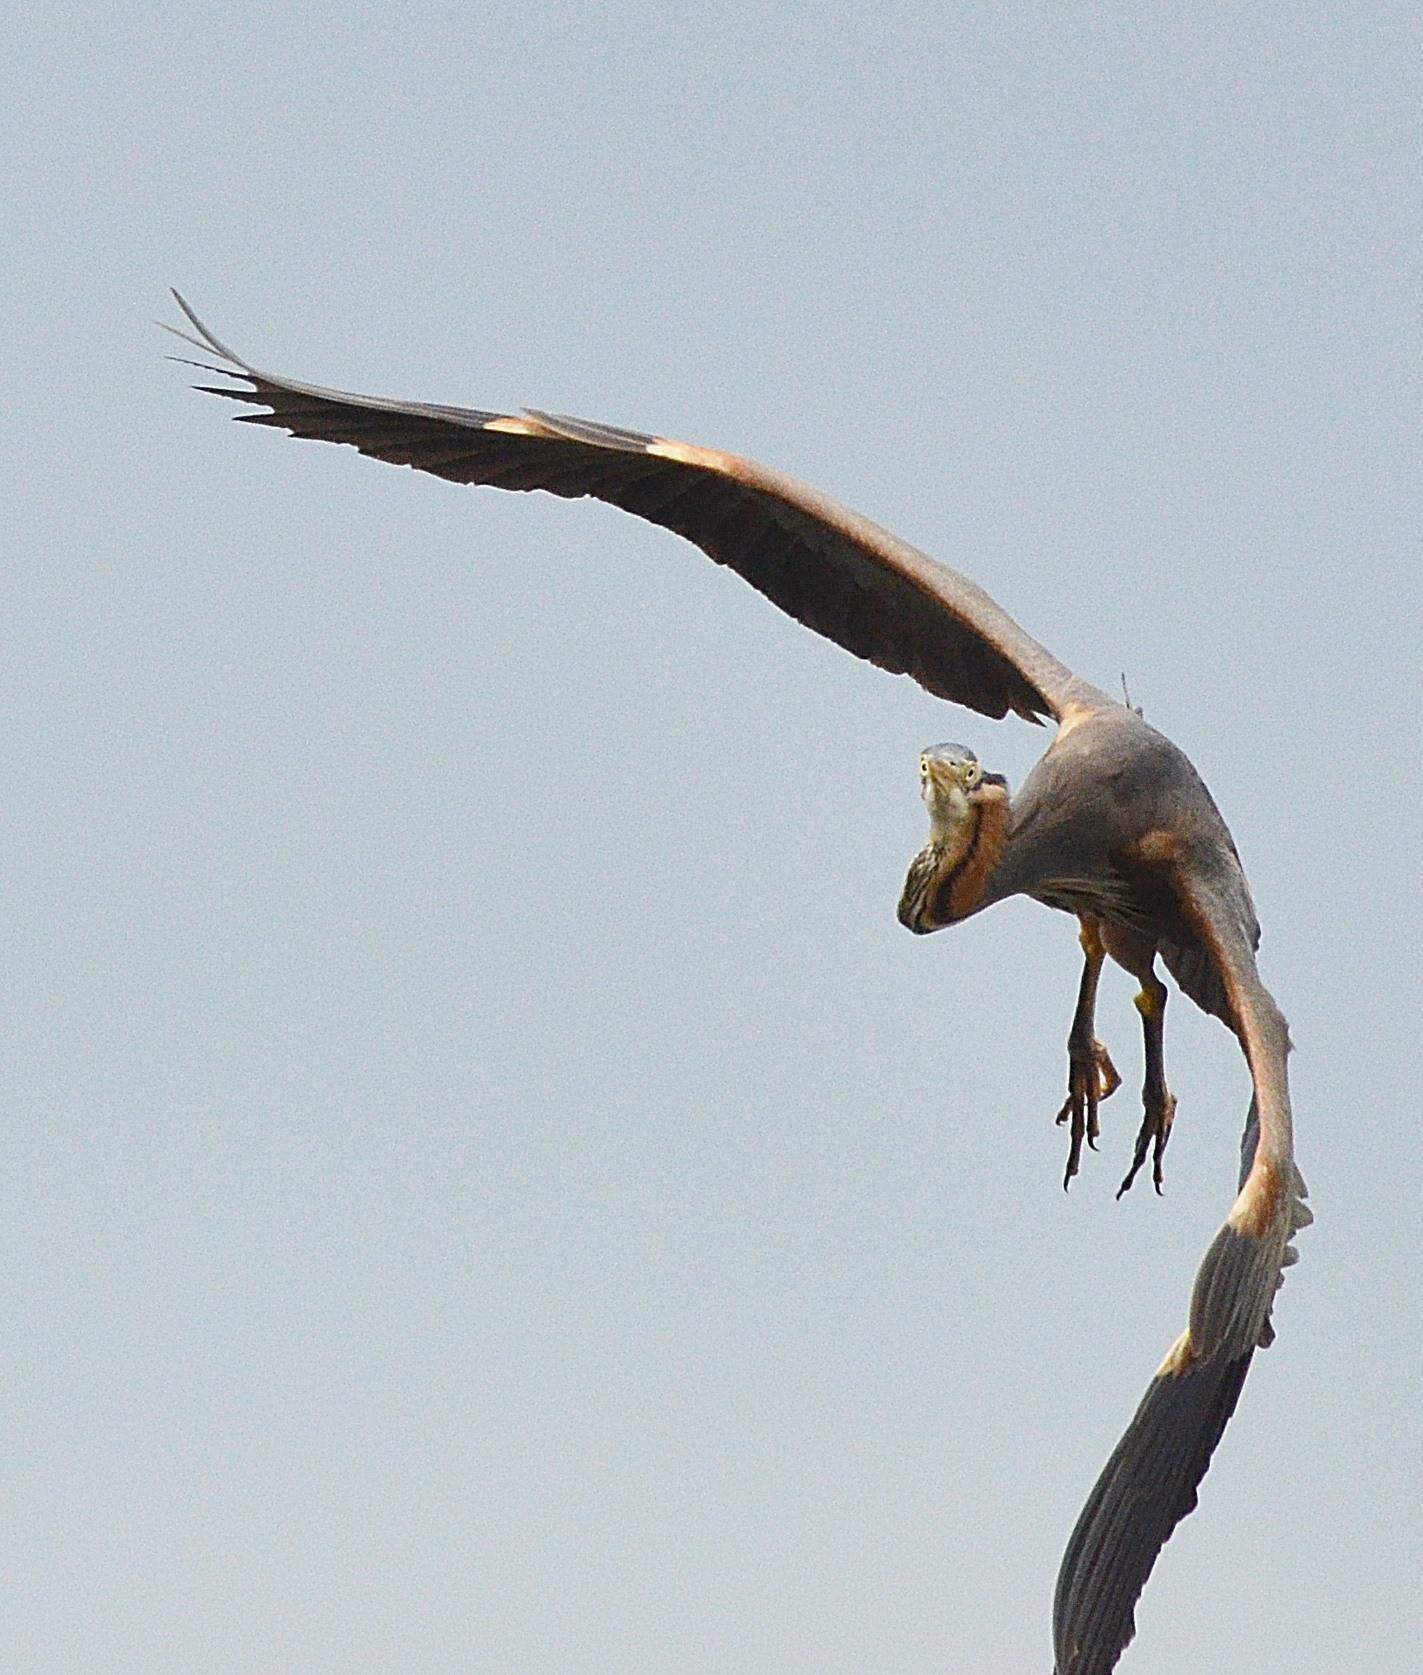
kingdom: Animalia
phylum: Chordata
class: Aves
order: Pelecaniformes
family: Ardeidae
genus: Ardea
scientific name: Ardea purpurea
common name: Purple heron
